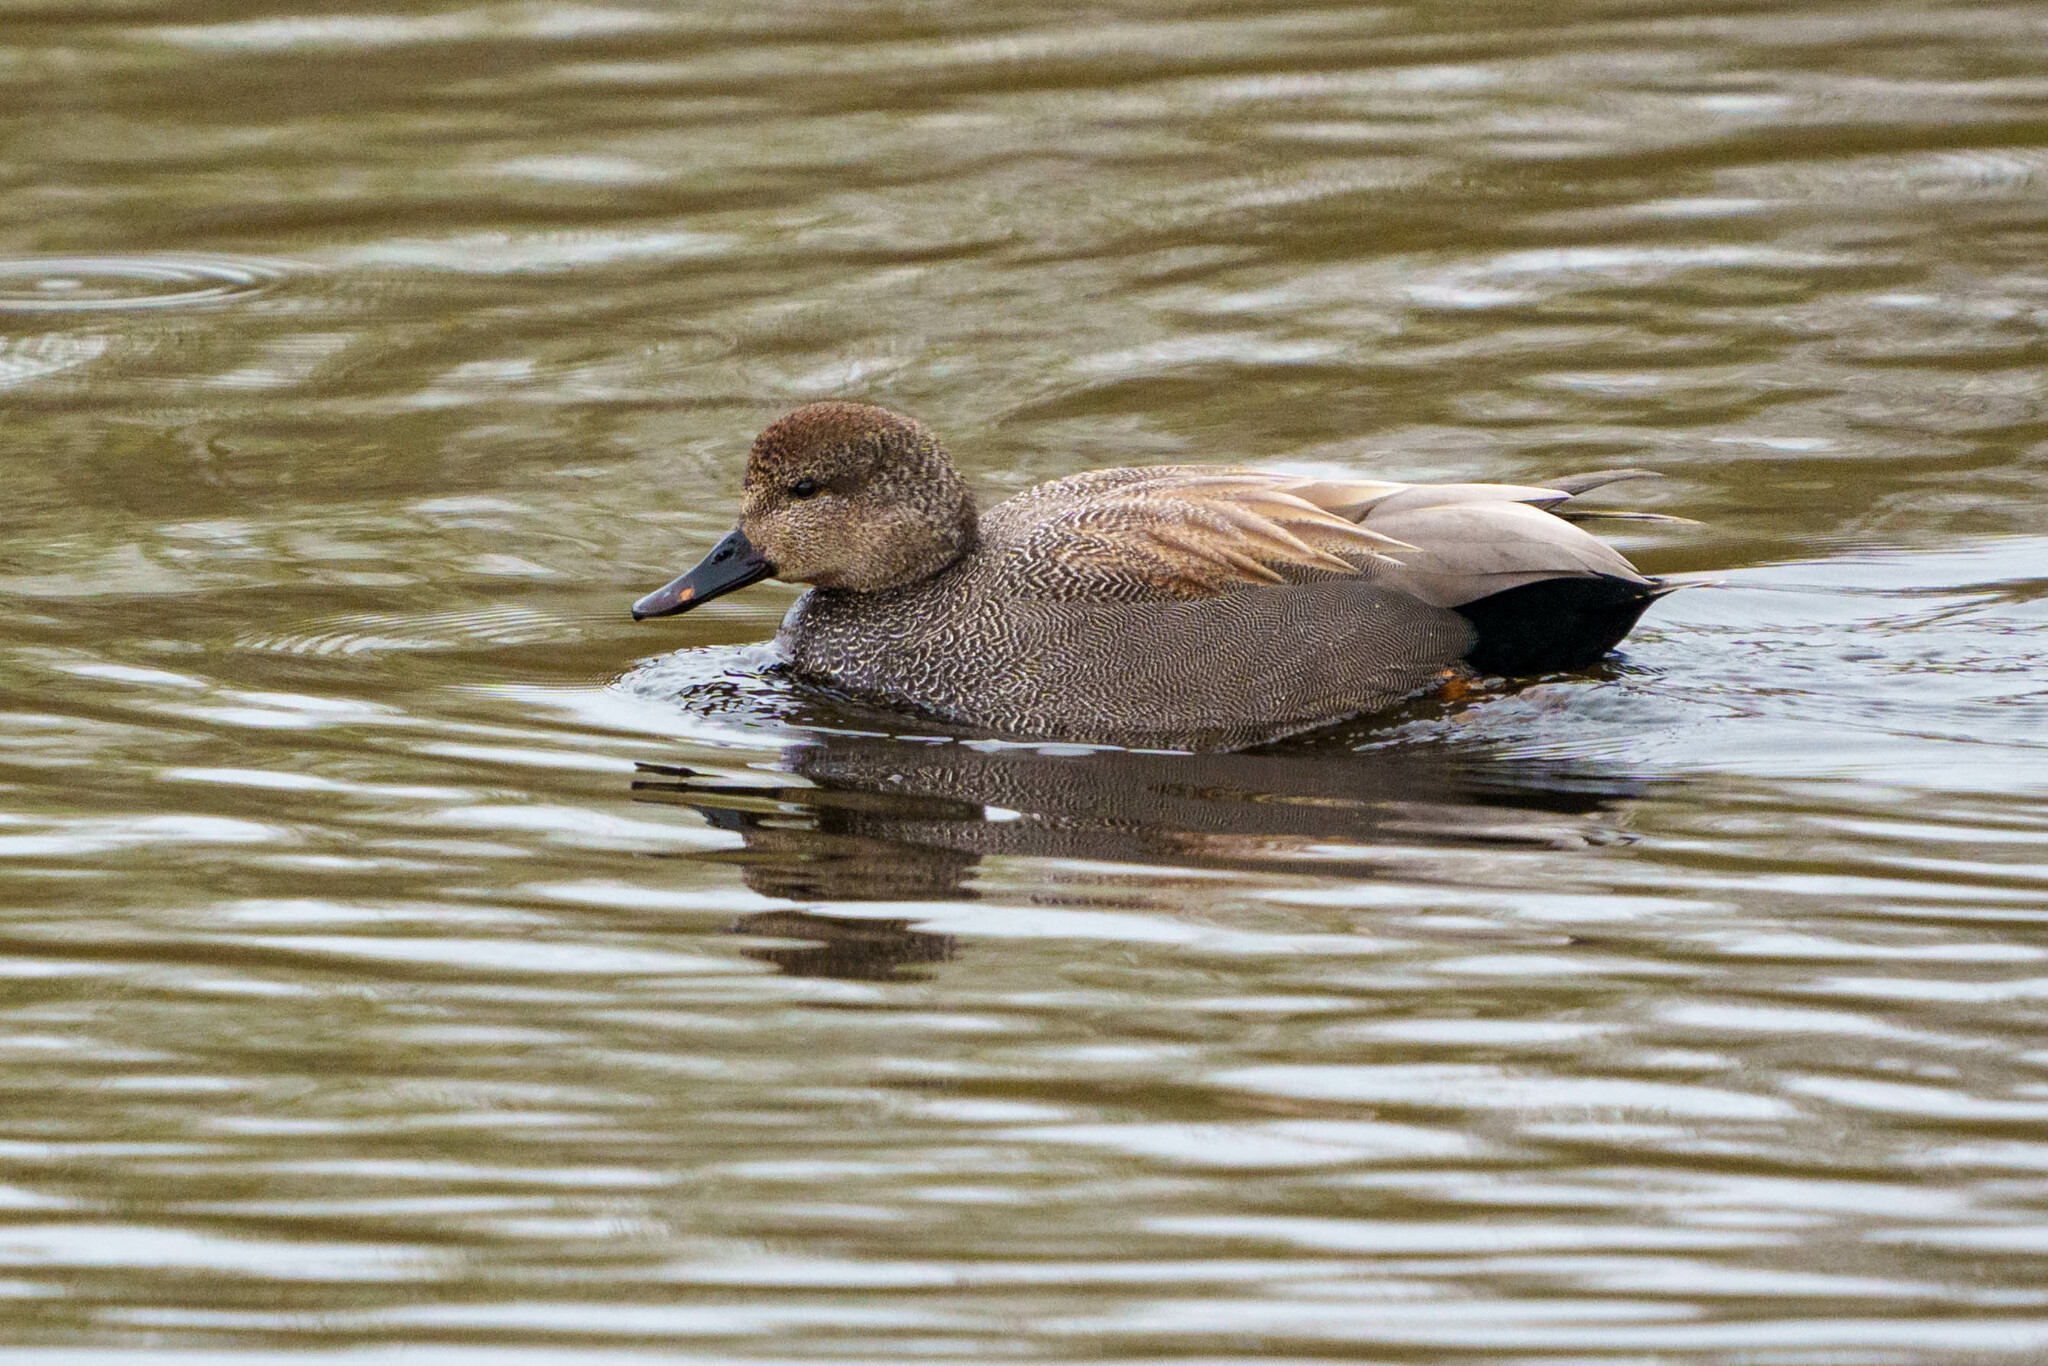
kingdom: Animalia
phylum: Chordata
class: Aves
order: Anseriformes
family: Anatidae
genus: Mareca
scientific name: Mareca strepera
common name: Gadwall
